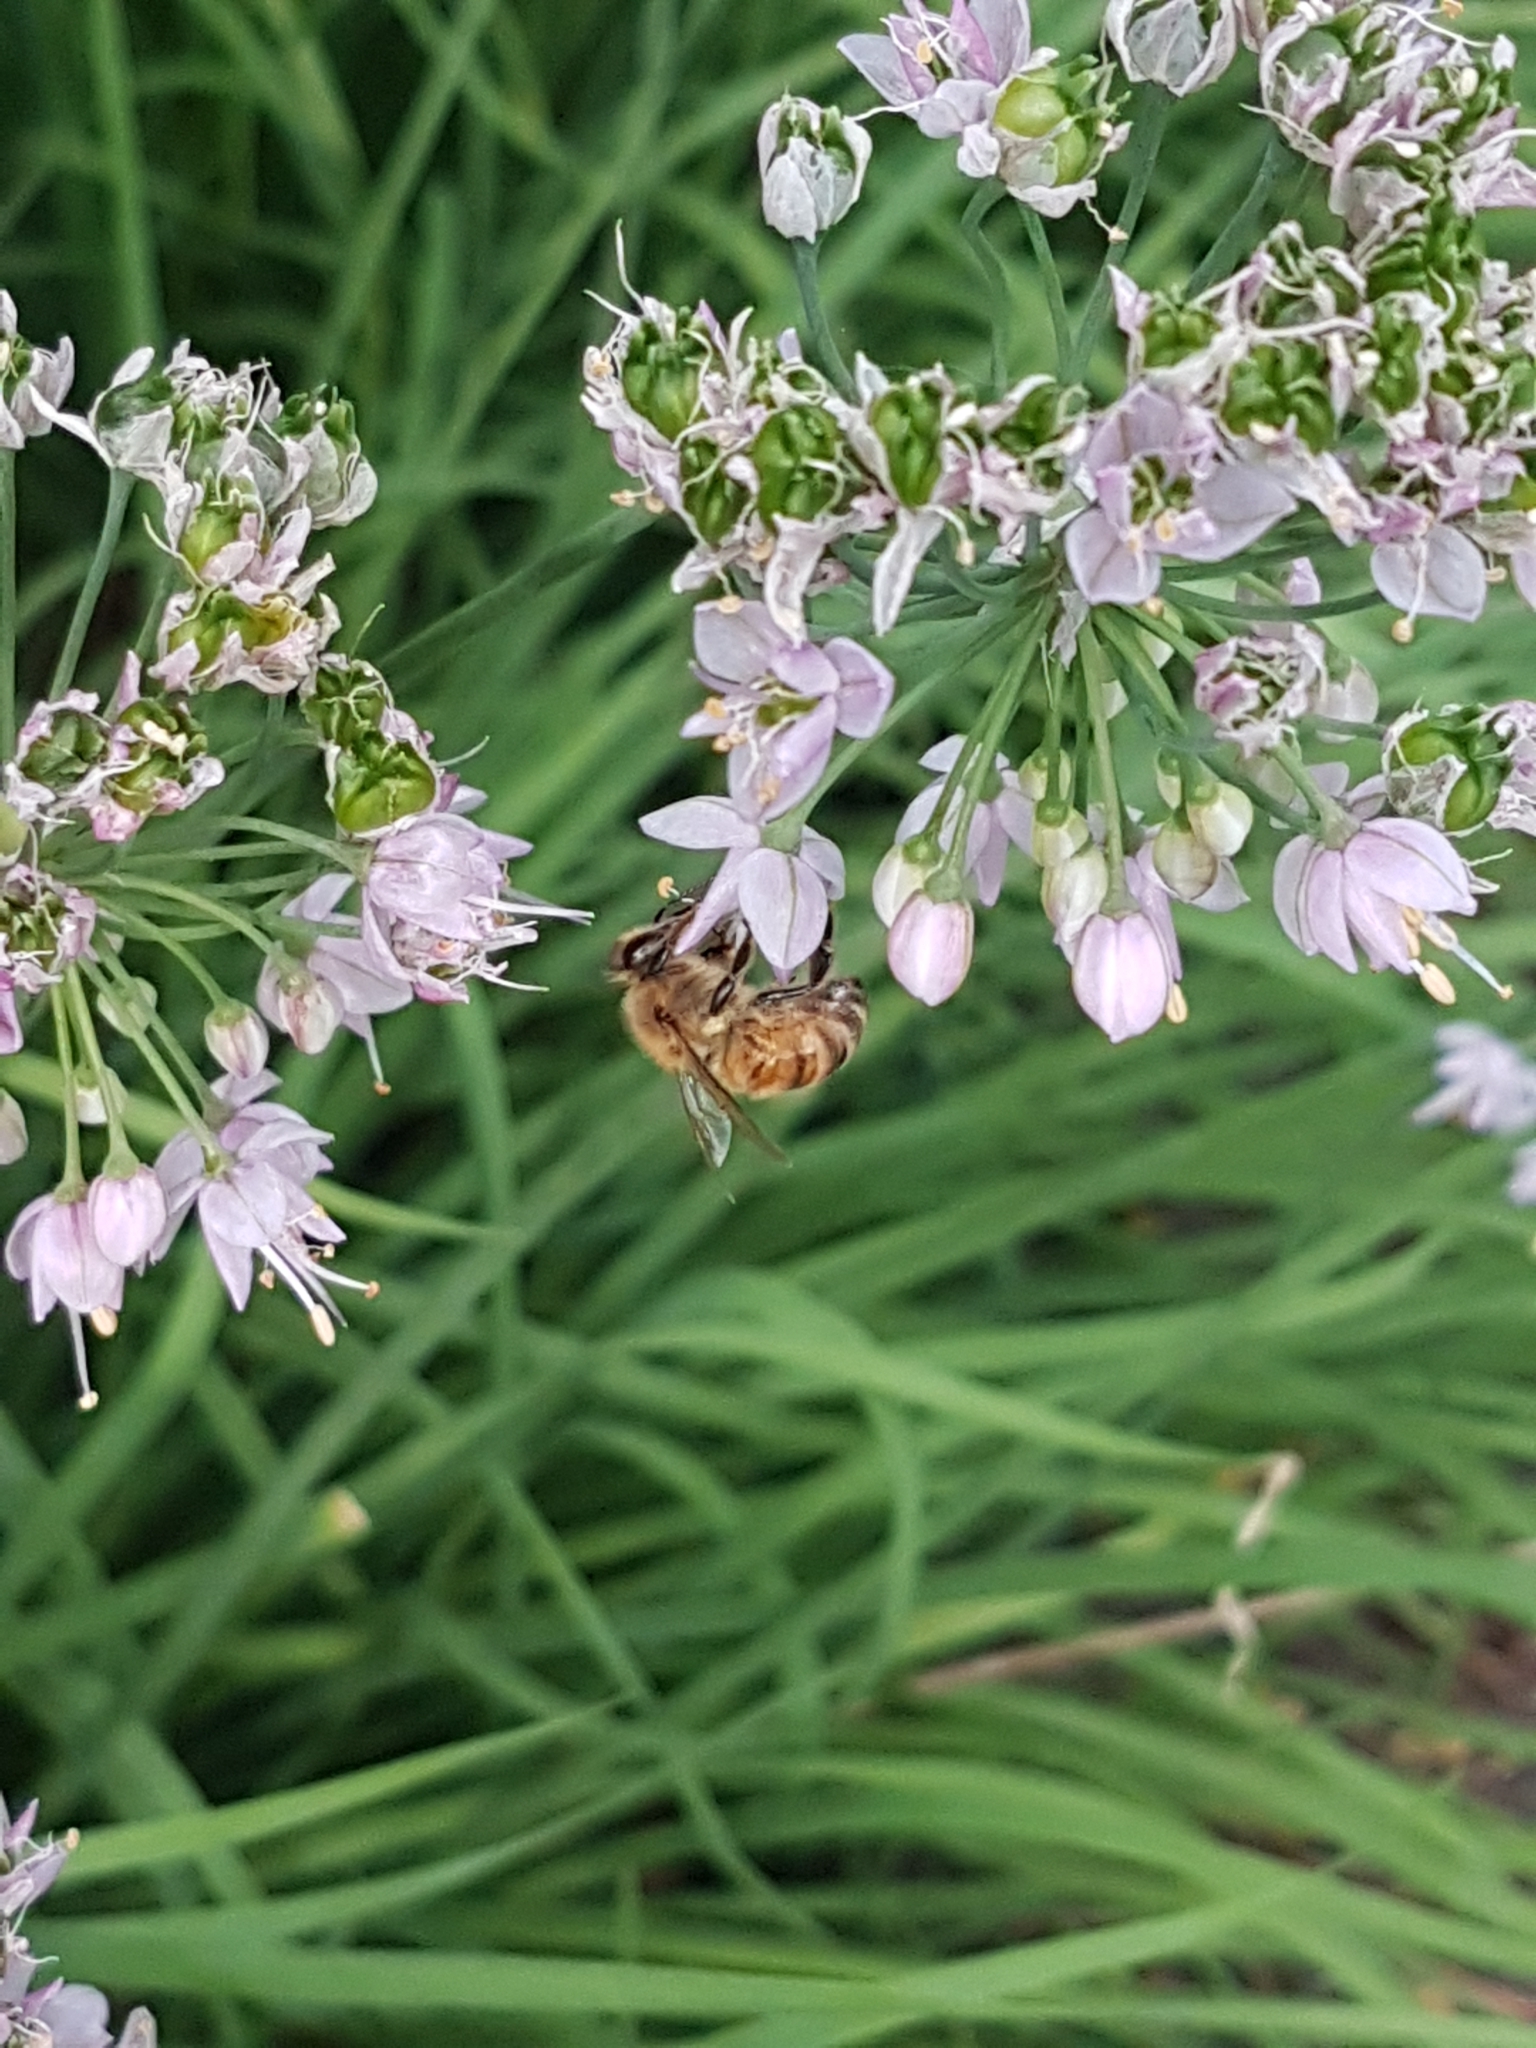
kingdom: Animalia
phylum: Arthropoda
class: Insecta
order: Hymenoptera
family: Apidae
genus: Apis
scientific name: Apis mellifera
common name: Honey bee
